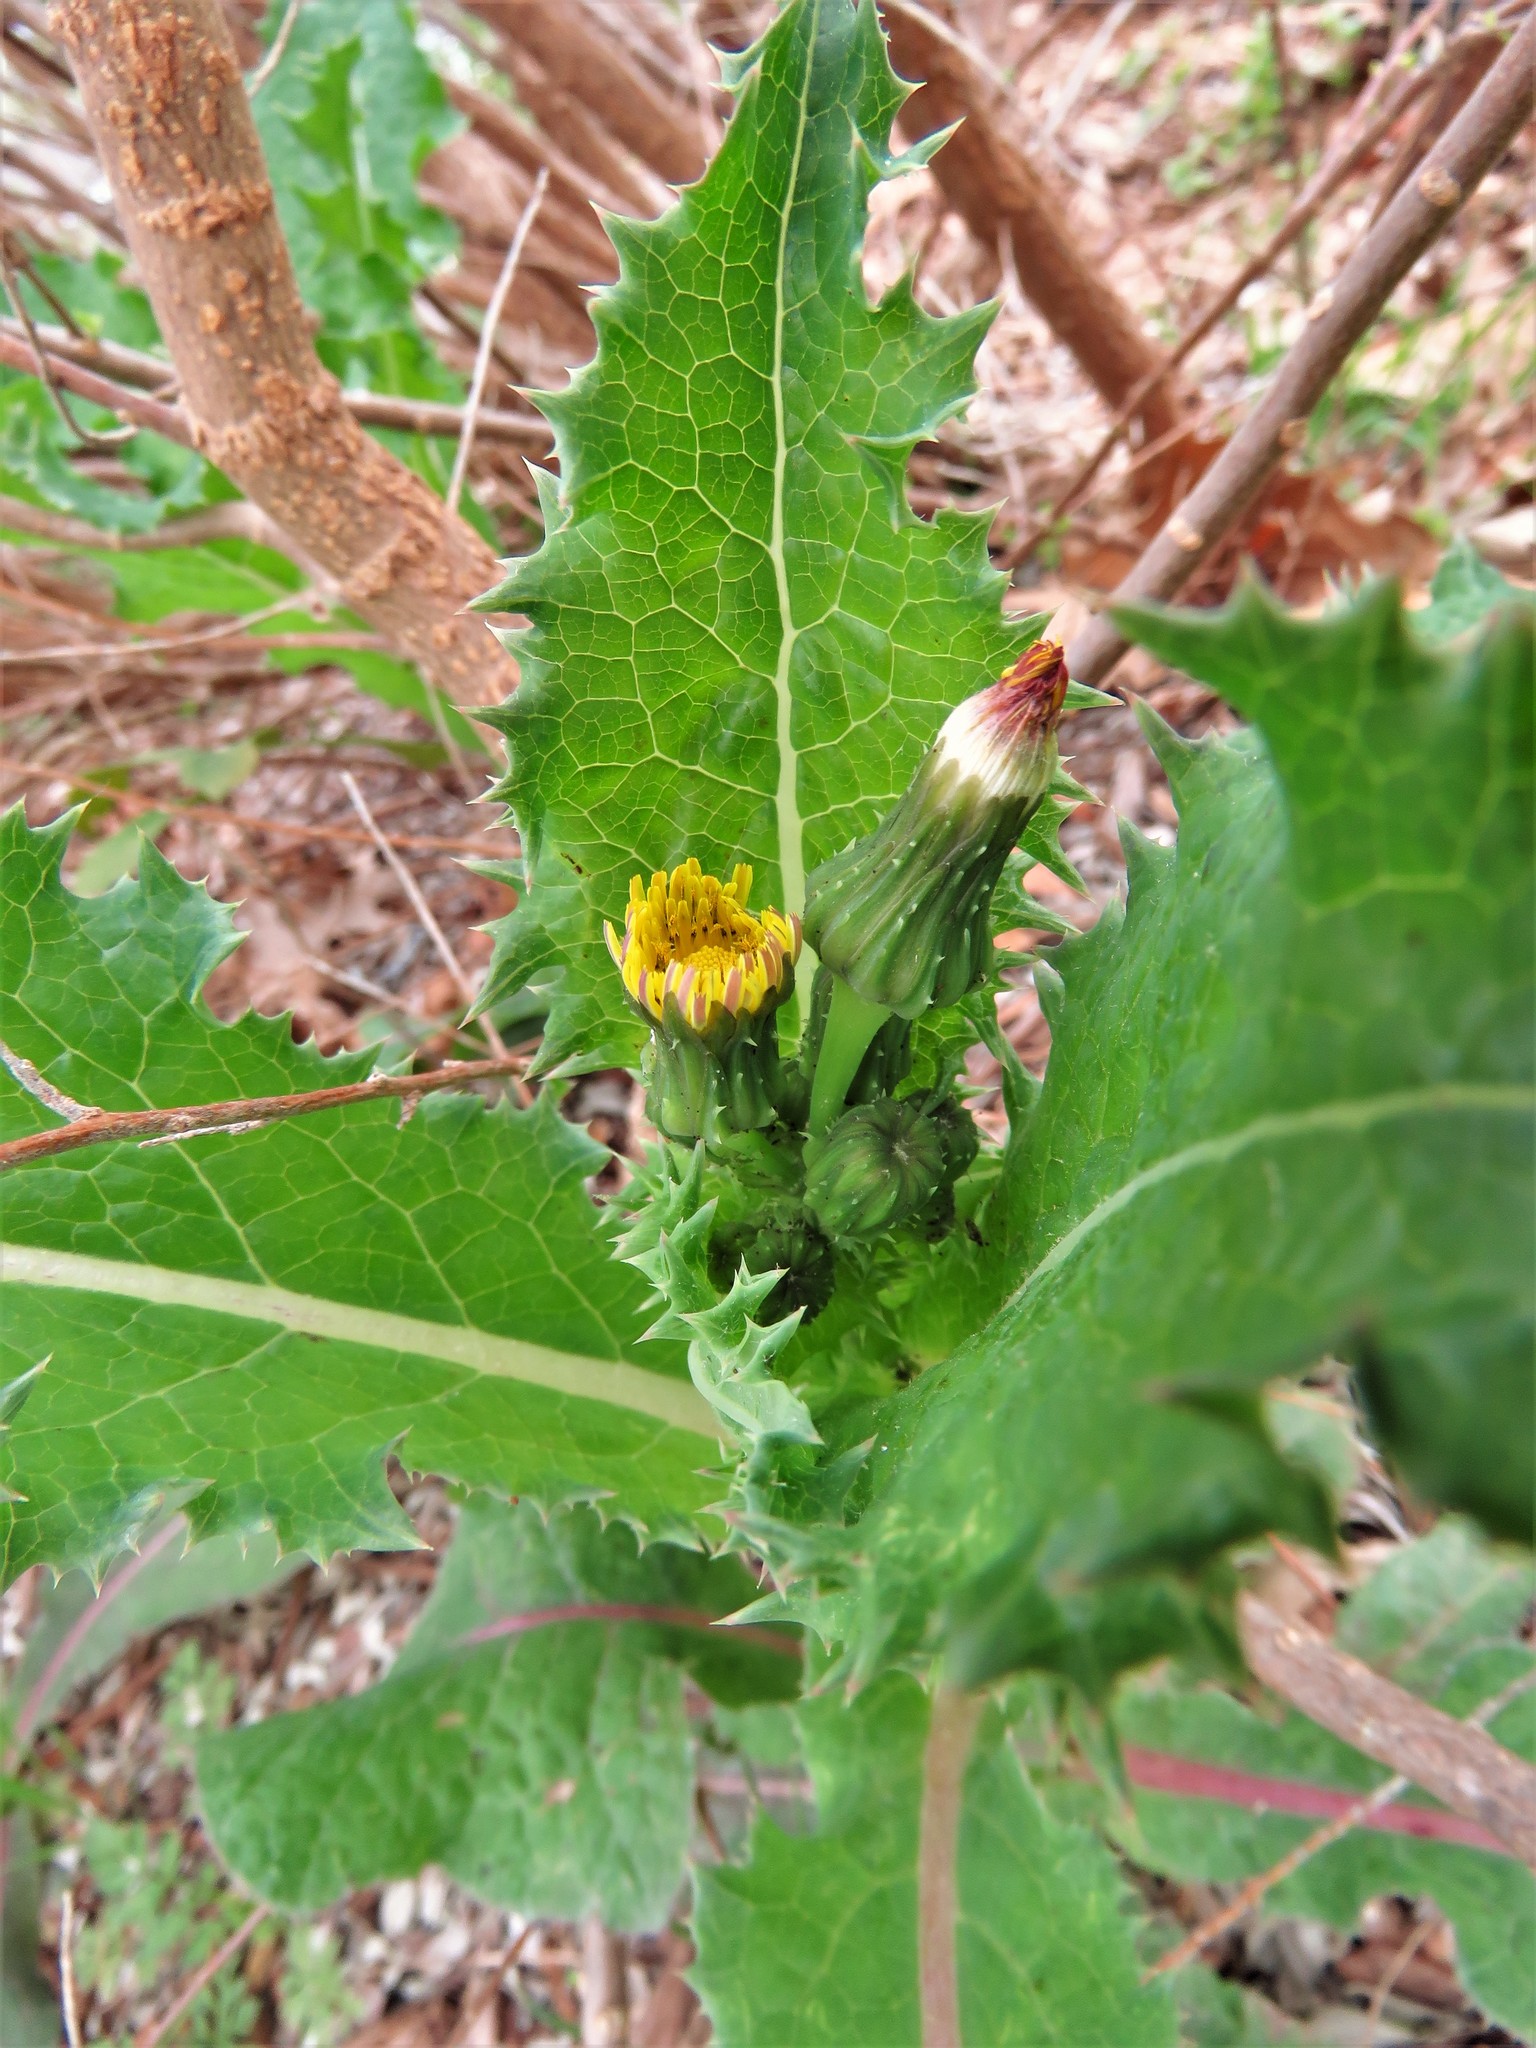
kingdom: Plantae
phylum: Tracheophyta
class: Magnoliopsida
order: Asterales
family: Asteraceae
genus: Sonchus
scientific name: Sonchus asper
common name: Prickly sow-thistle
